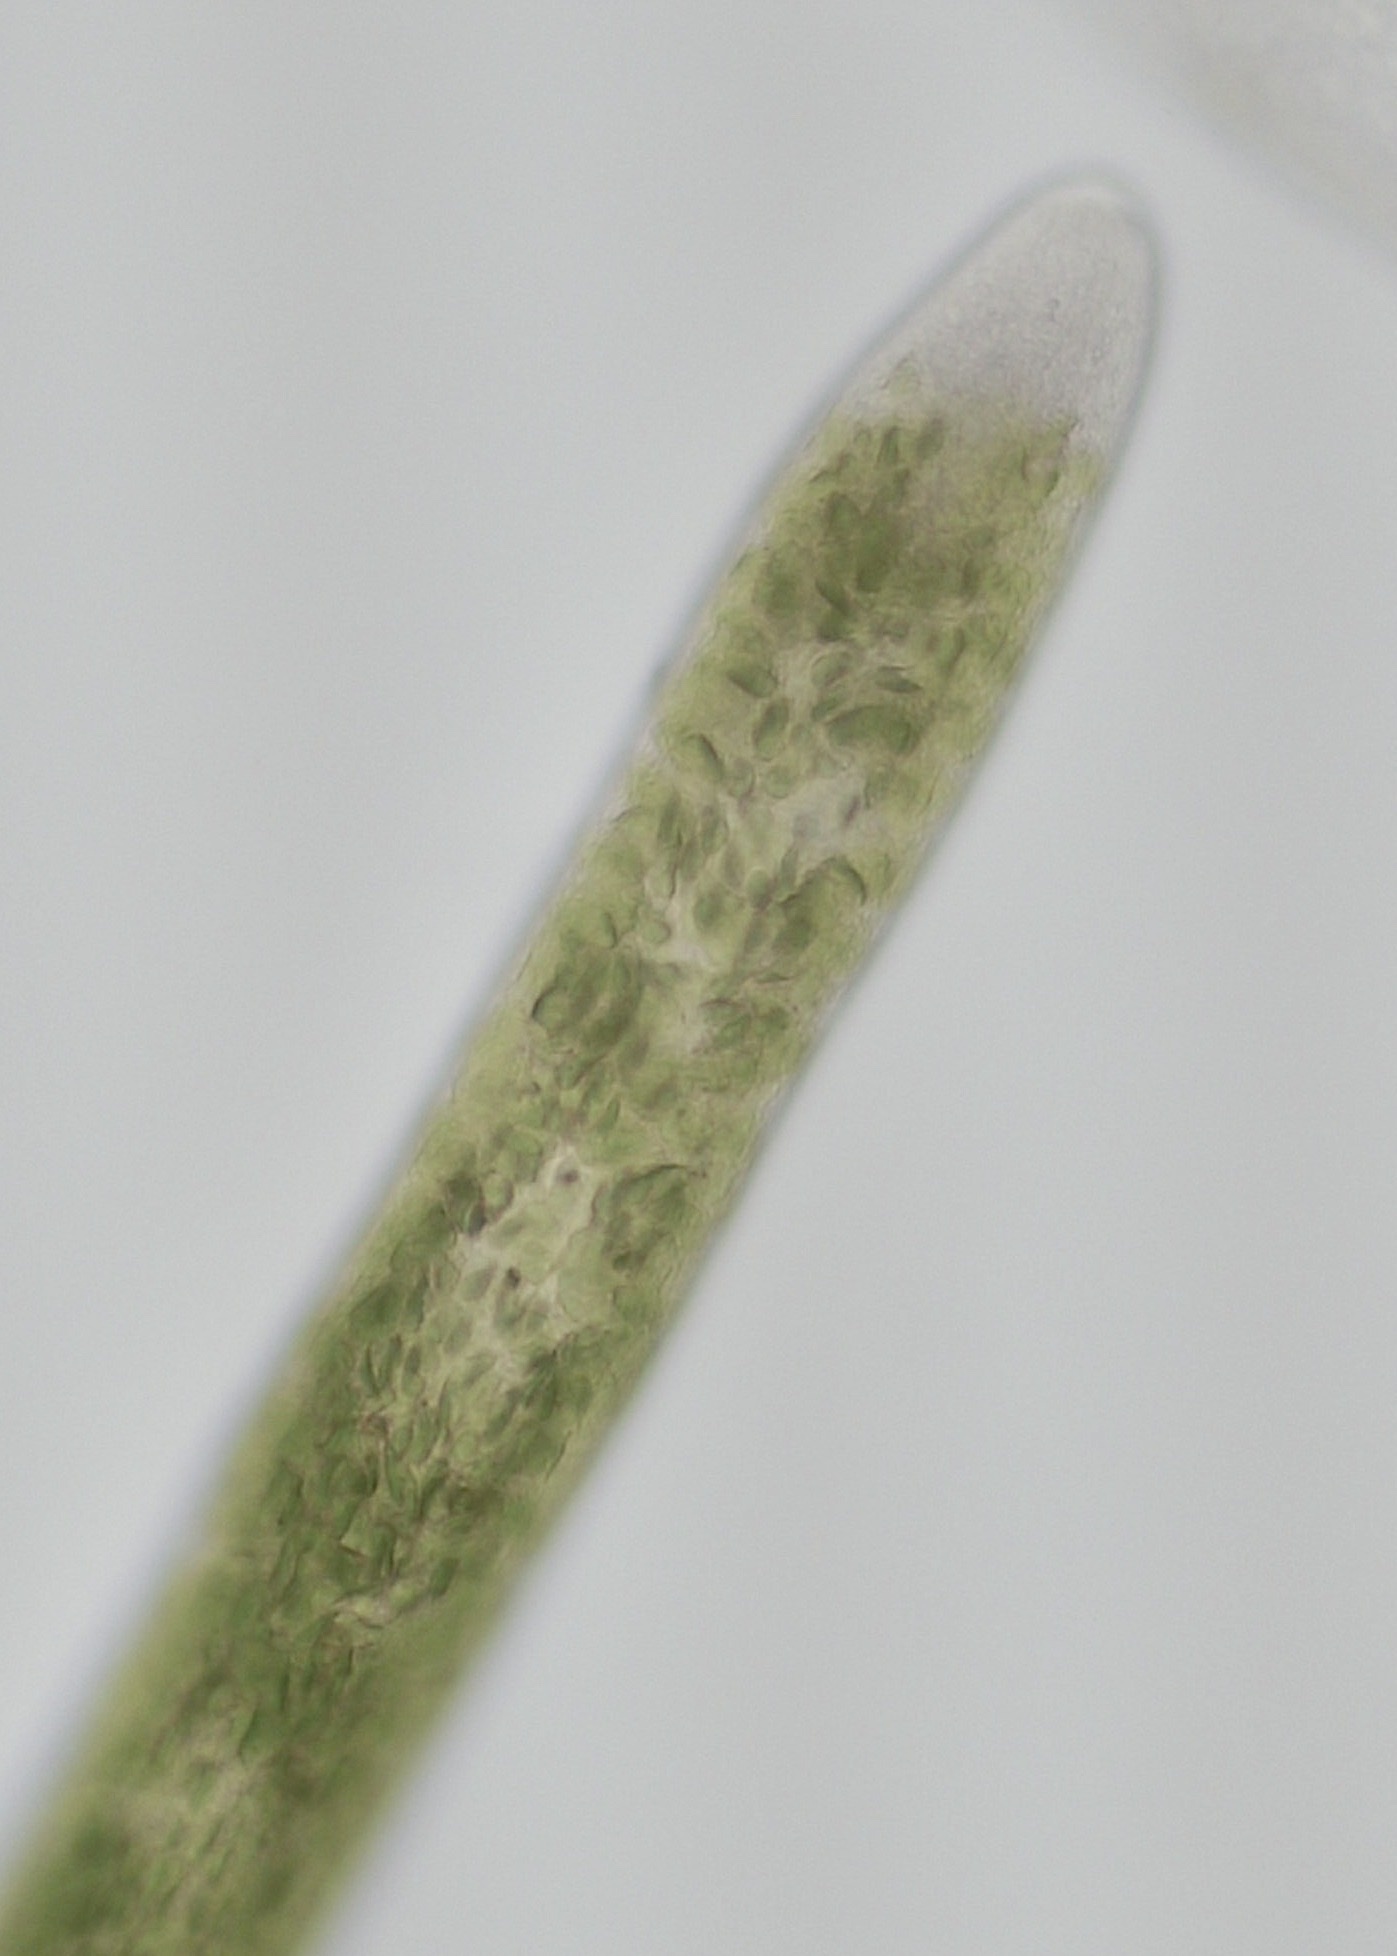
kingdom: Chromista
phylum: Ochrophyta
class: Xanthophyceae
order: Vaucheriales
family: Vaucheriaceae
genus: Vaucheria
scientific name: Vaucheria
